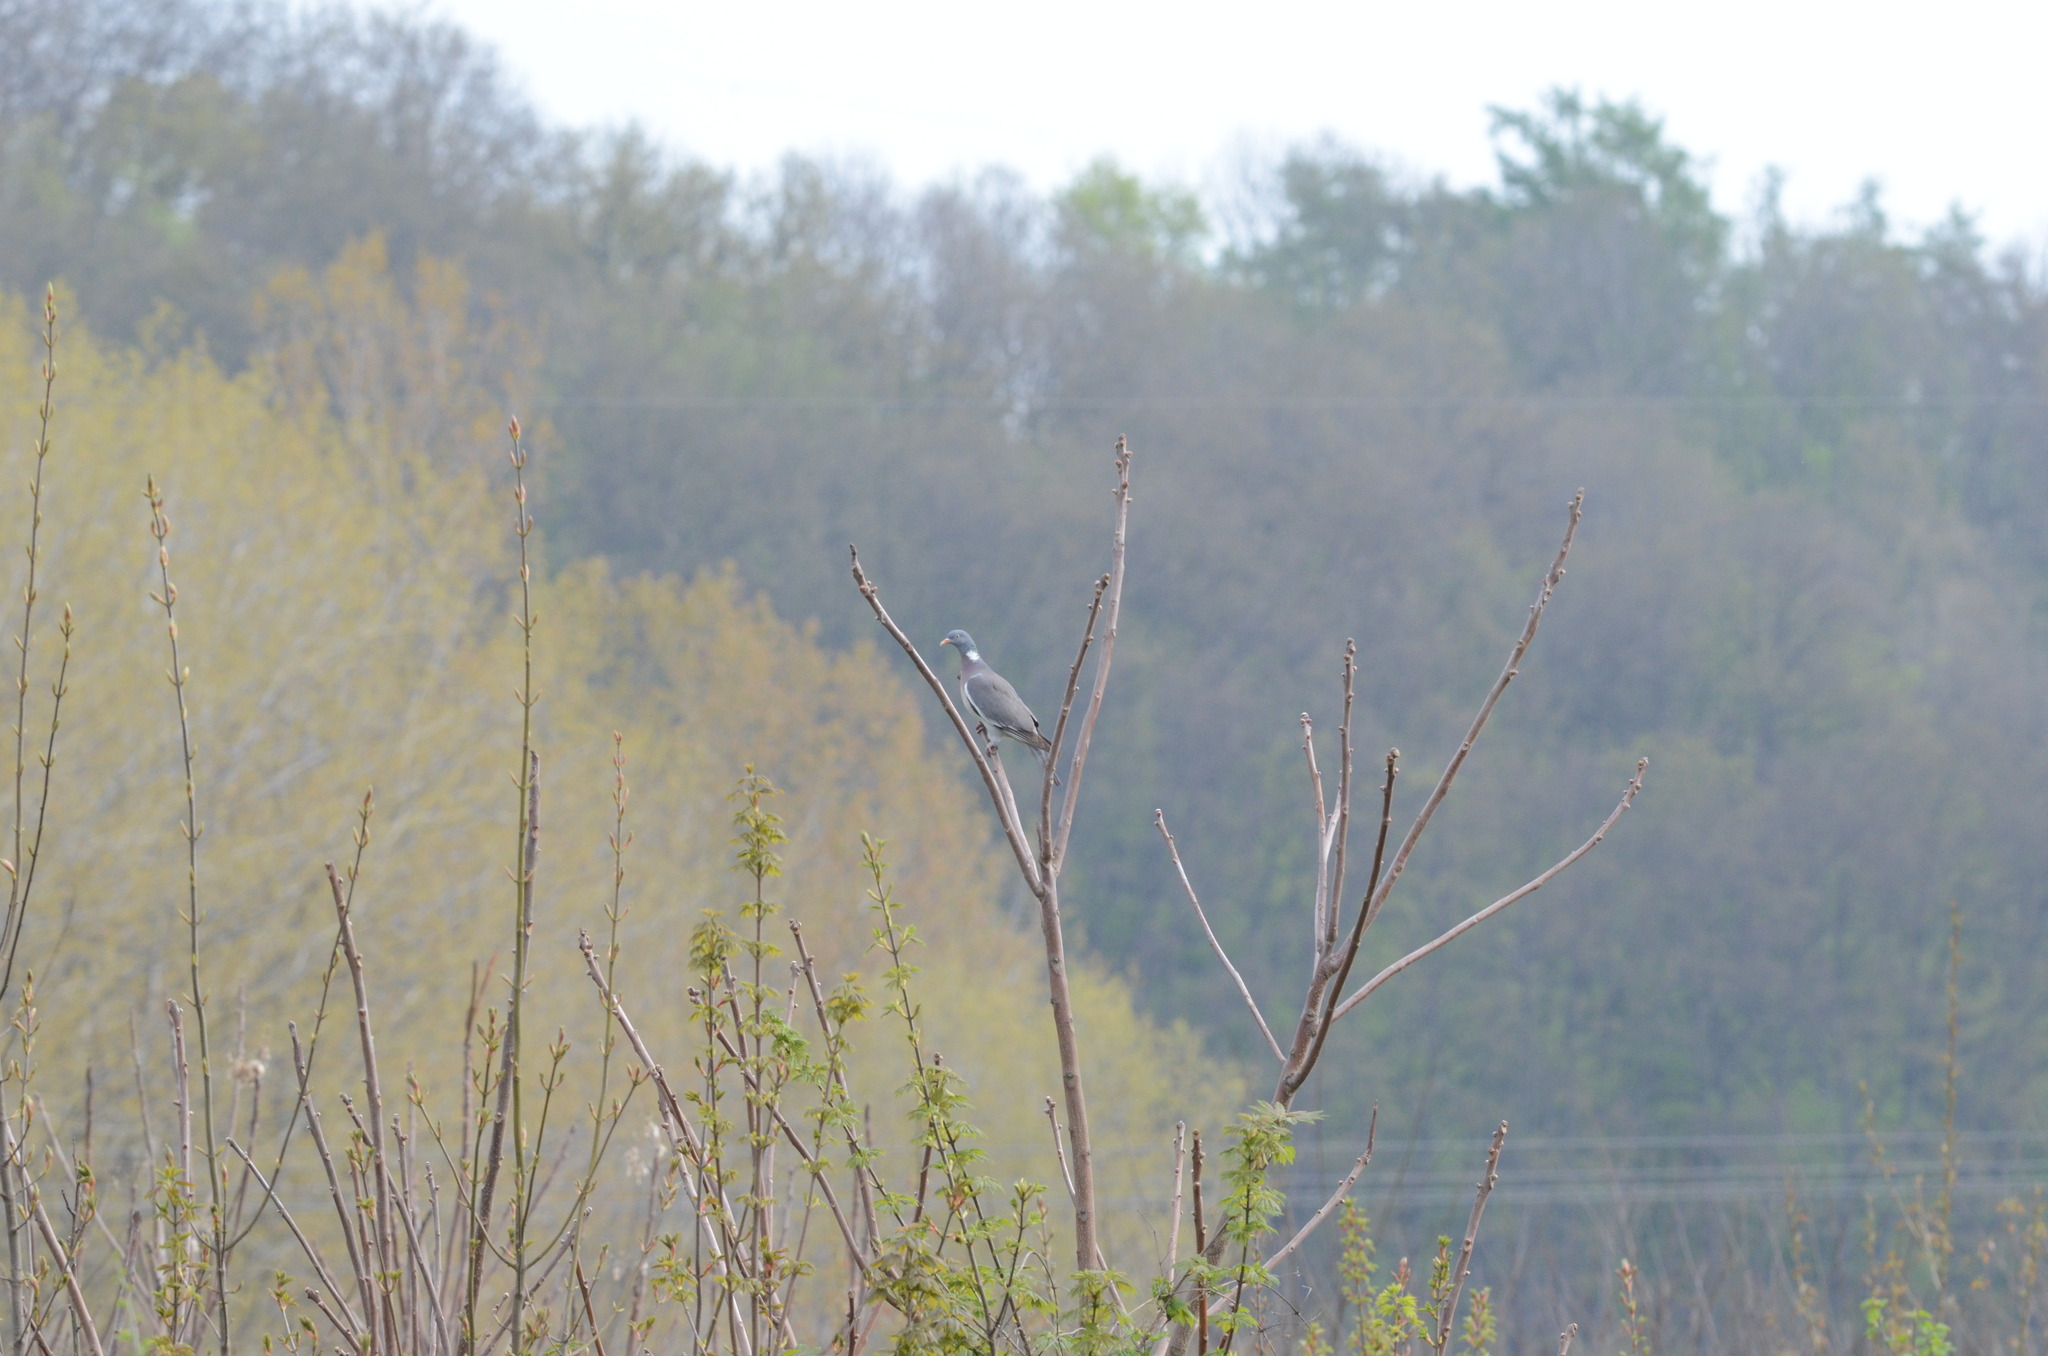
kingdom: Animalia
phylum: Chordata
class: Aves
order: Columbiformes
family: Columbidae
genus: Columba
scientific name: Columba palumbus
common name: Common wood pigeon
